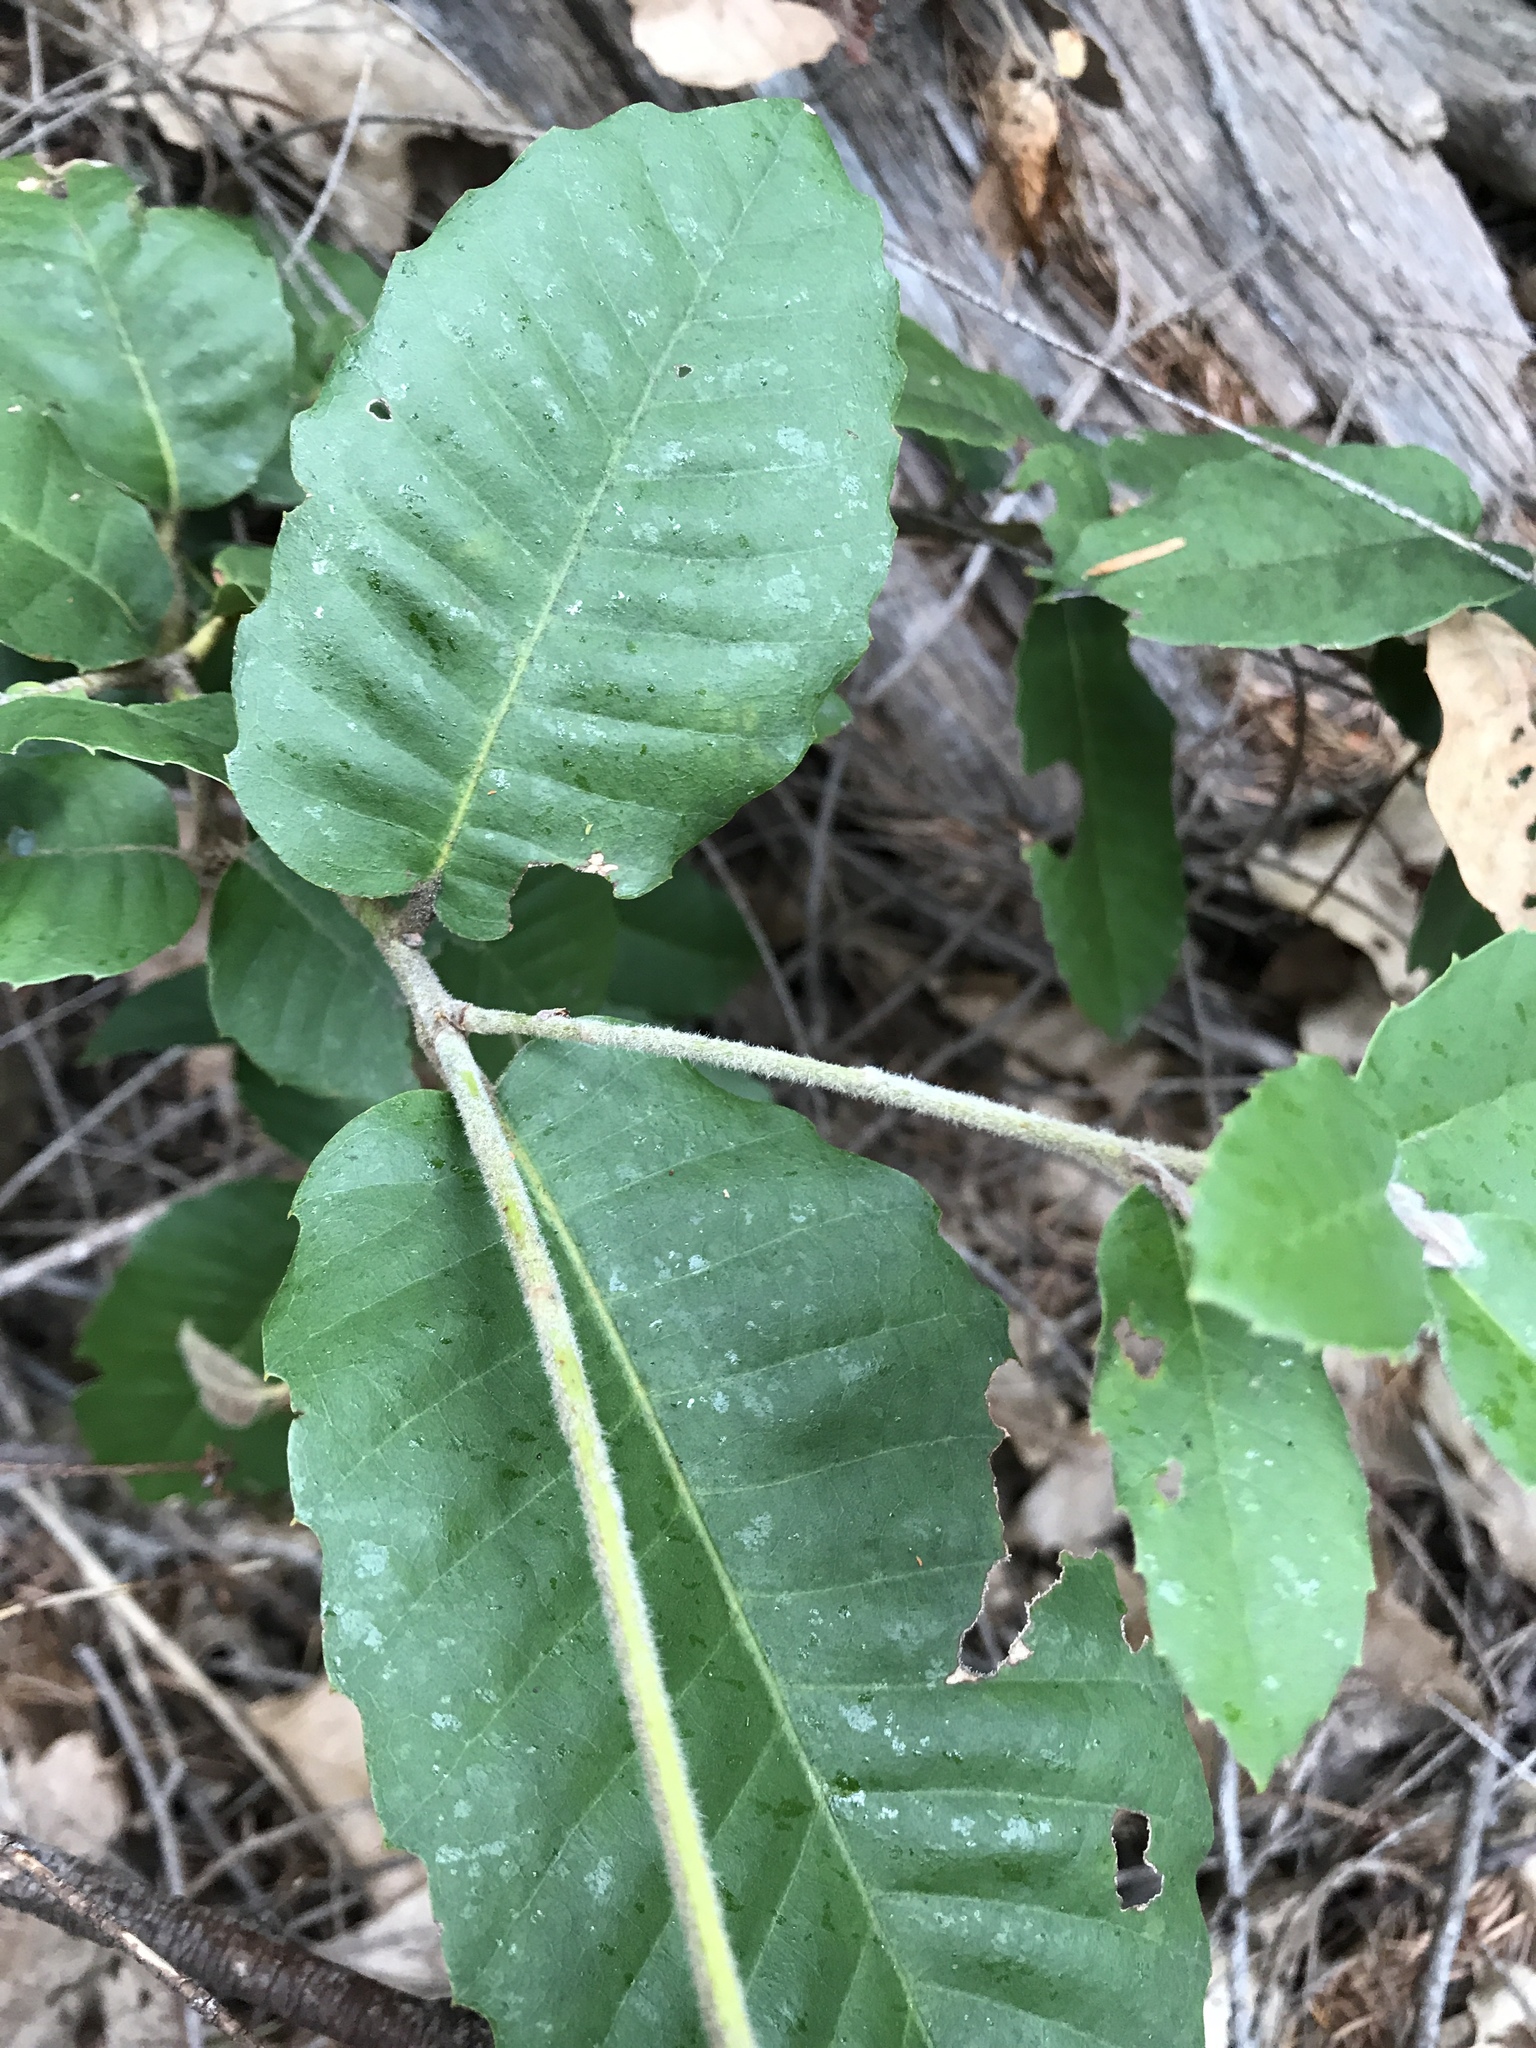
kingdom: Plantae
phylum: Tracheophyta
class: Magnoliopsida
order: Fagales
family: Fagaceae
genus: Notholithocarpus
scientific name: Notholithocarpus densiflorus
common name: Tan bark oak
